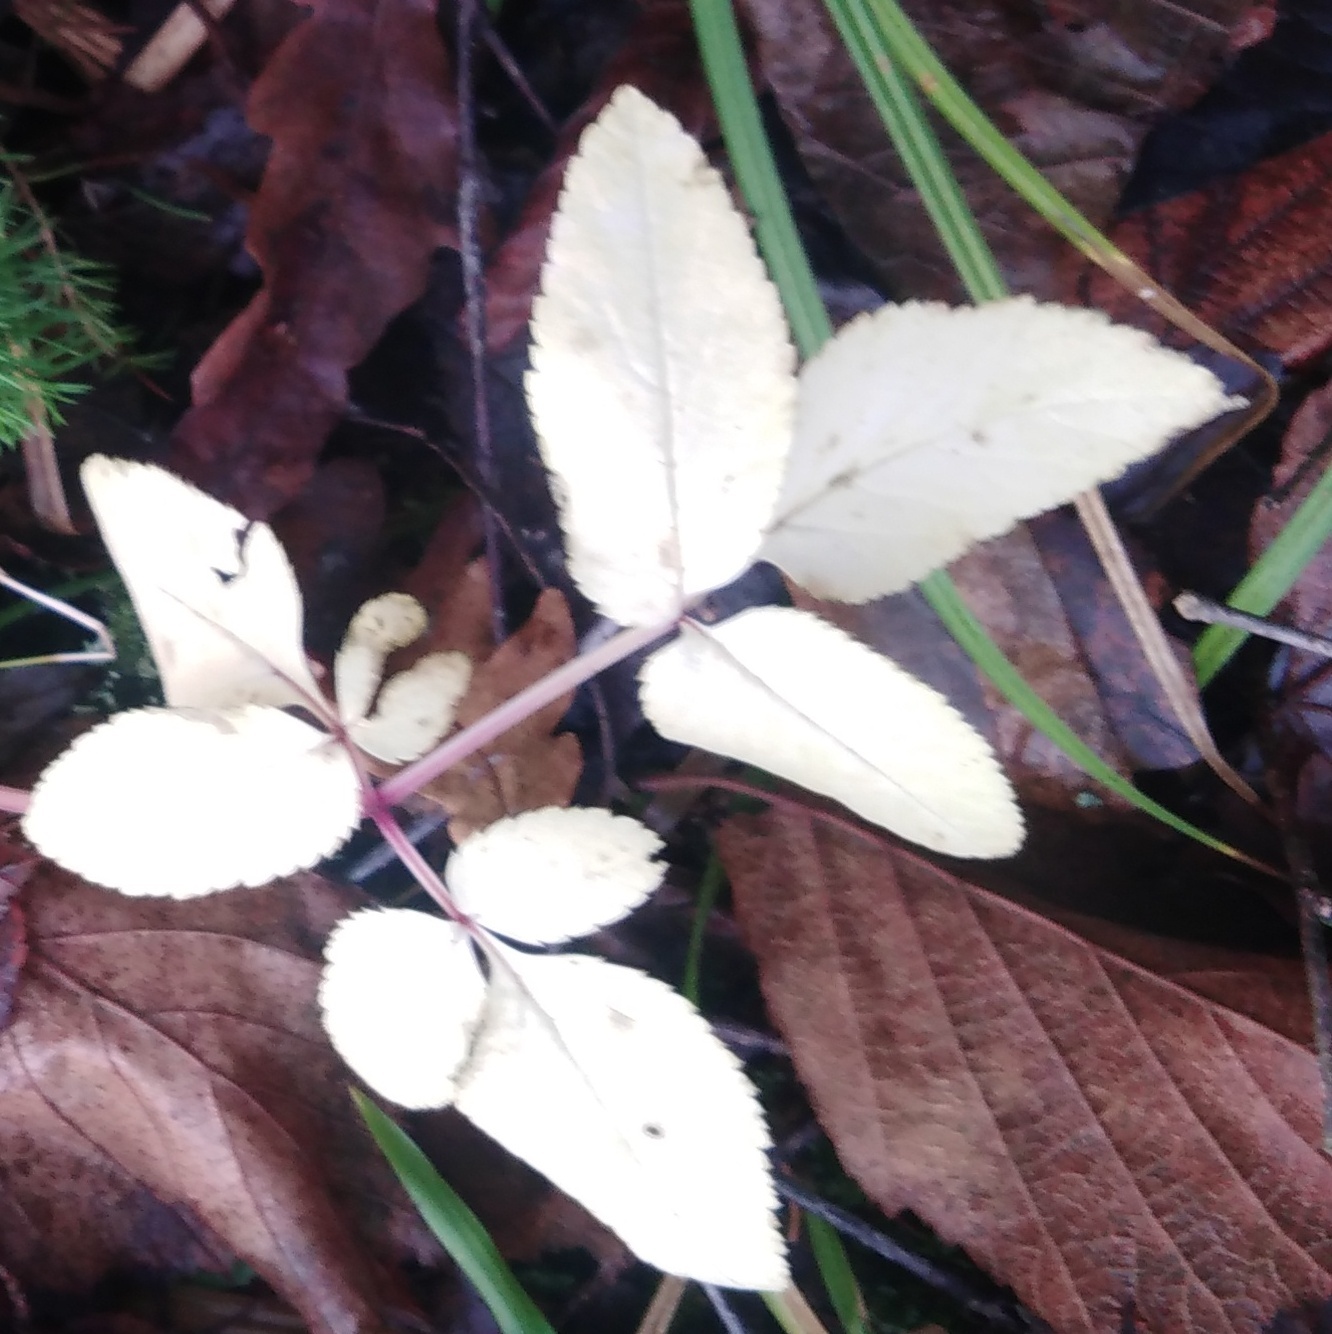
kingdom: Plantae
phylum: Tracheophyta
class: Magnoliopsida
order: Apiales
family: Apiaceae
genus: Aegopodium
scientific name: Aegopodium podagraria
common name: Ground-elder
